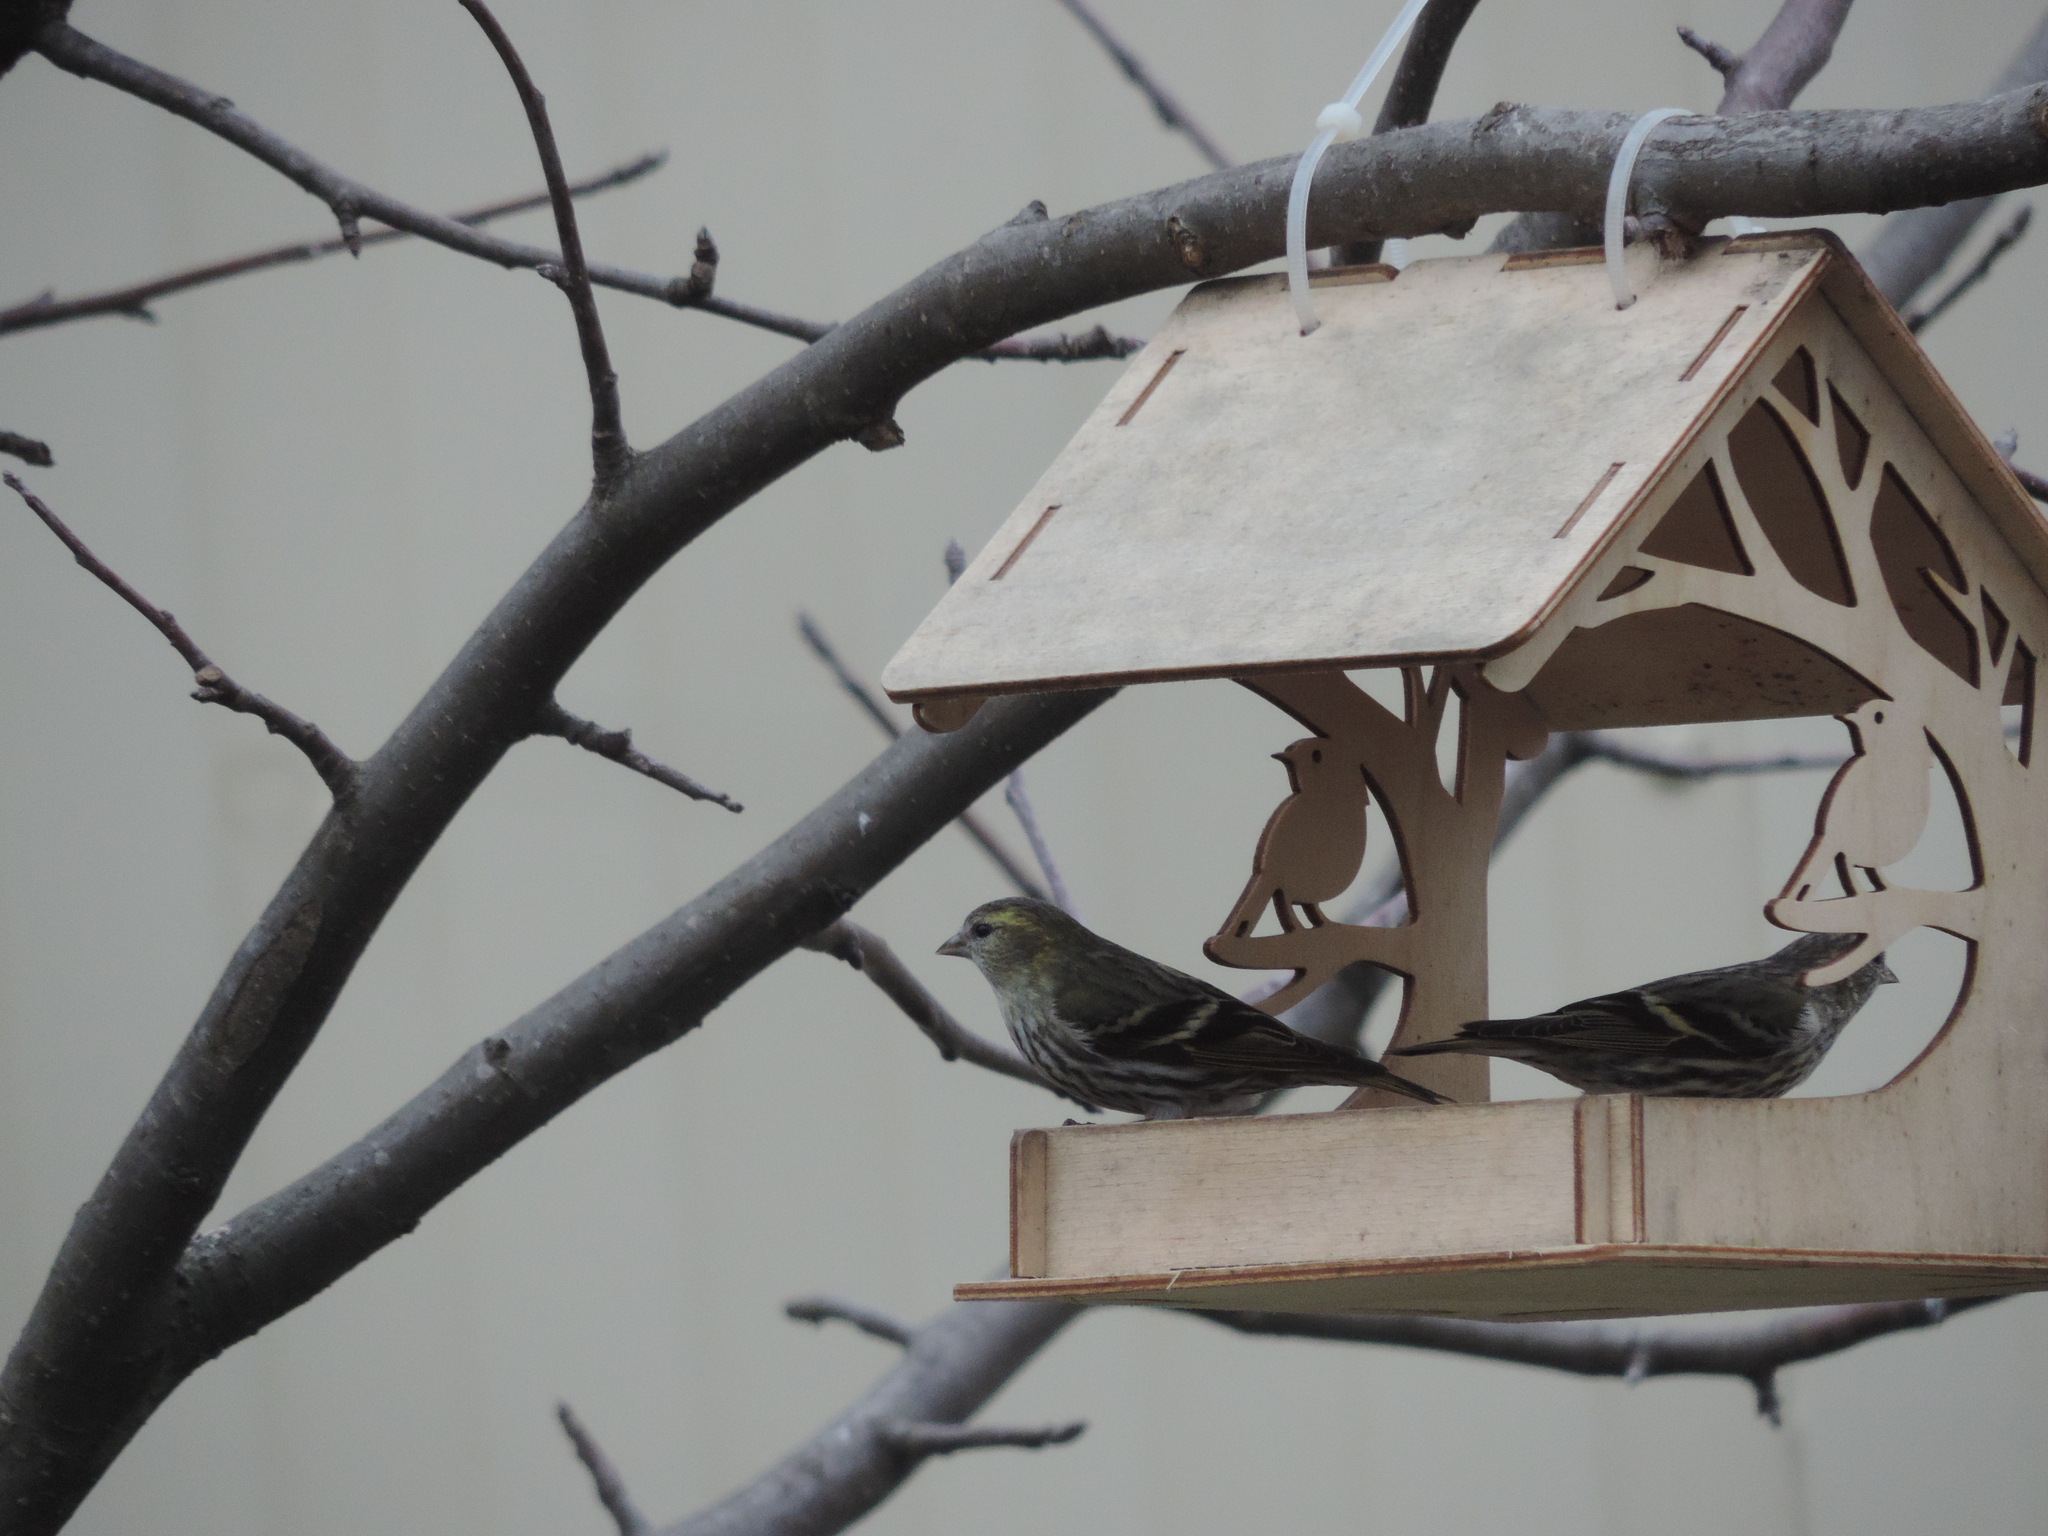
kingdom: Animalia
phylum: Chordata
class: Aves
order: Passeriformes
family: Fringillidae
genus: Spinus
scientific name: Spinus spinus
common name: Eurasian siskin
